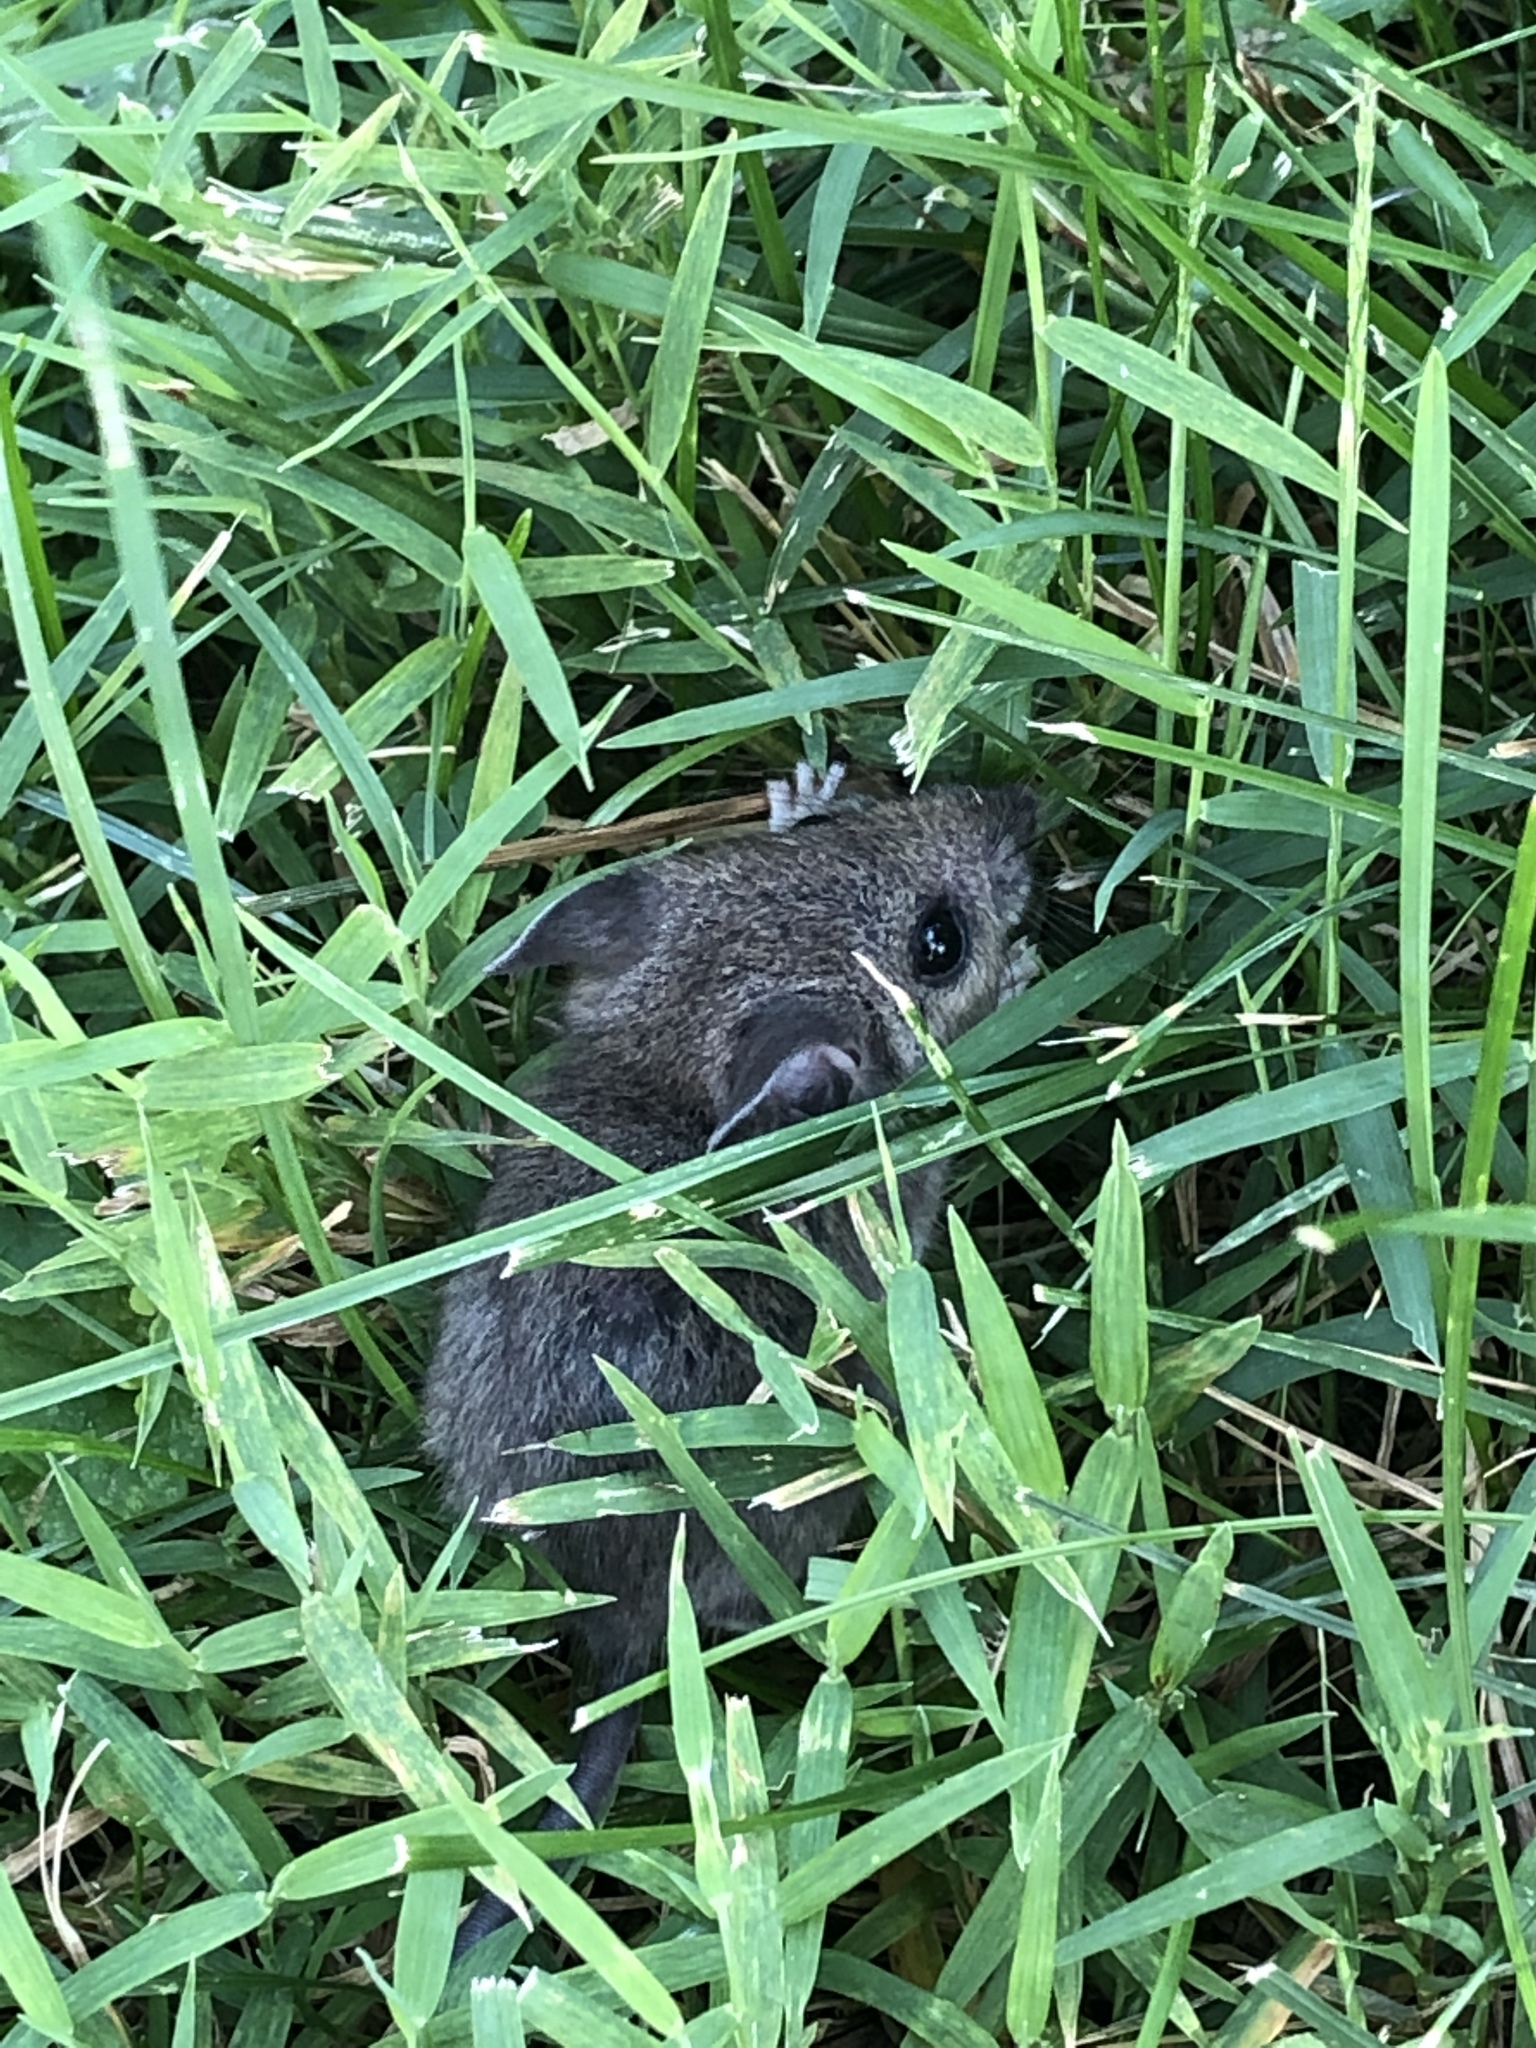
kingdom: Animalia
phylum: Chordata
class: Mammalia
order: Rodentia
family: Cricetidae
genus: Peromyscus
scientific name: Peromyscus leucopus
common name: White-footed deermouse
